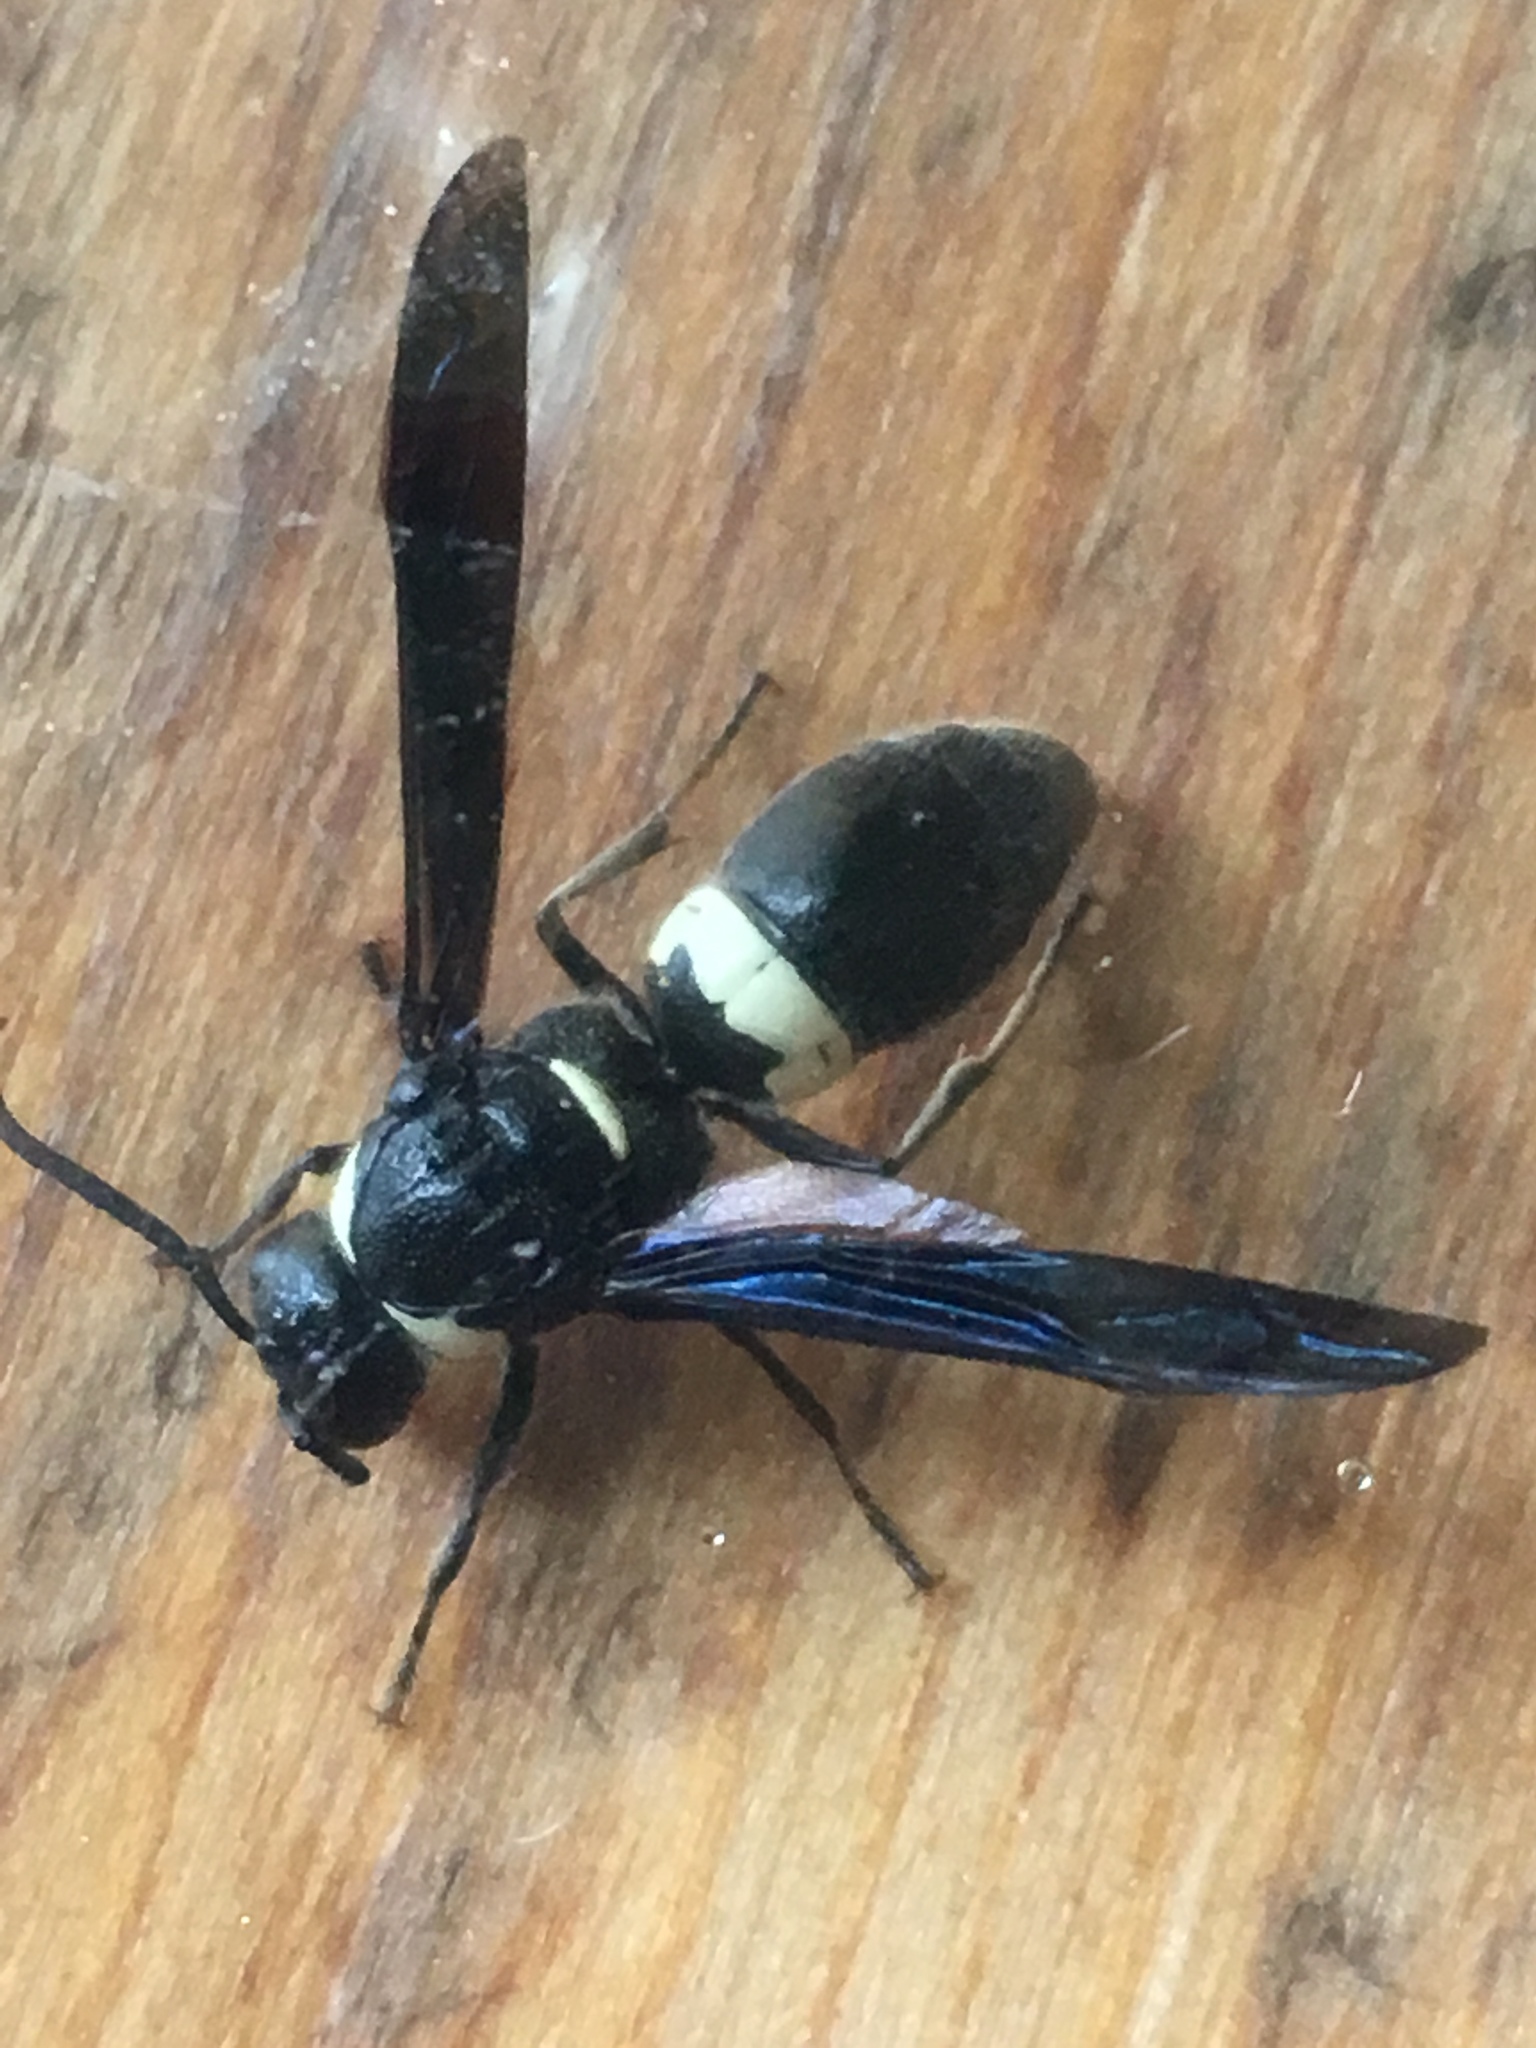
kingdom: Animalia
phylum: Arthropoda
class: Insecta
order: Hymenoptera
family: Eumenidae
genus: Monobia
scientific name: Monobia quadridens
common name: Four-toothed mason wasp
